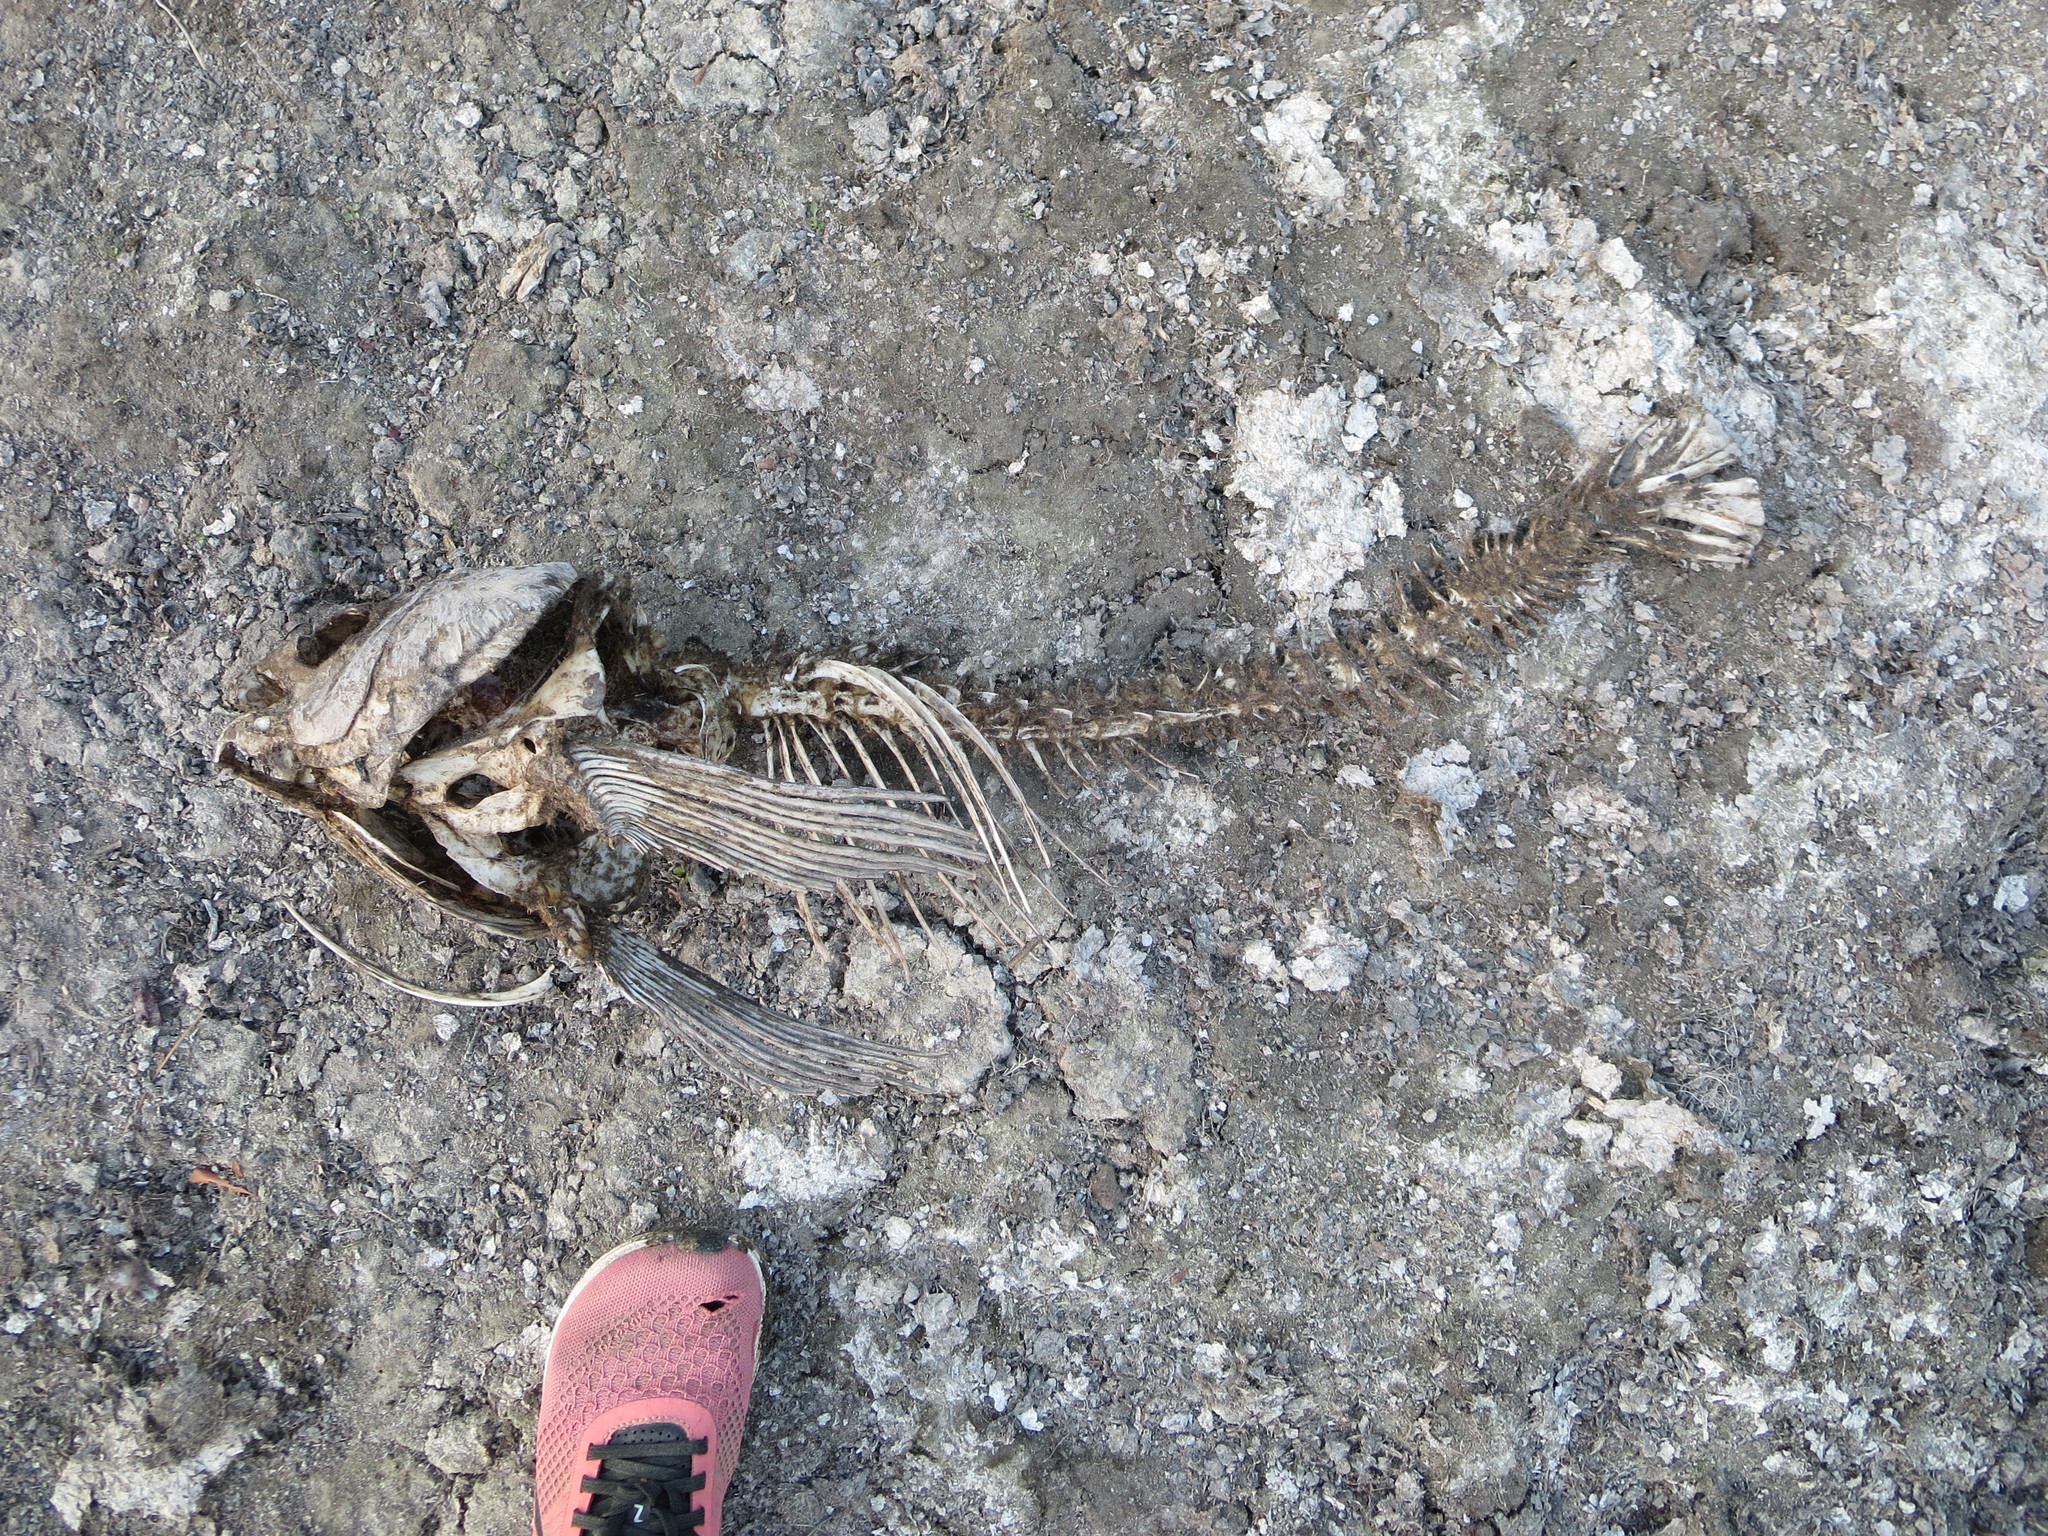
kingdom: Animalia
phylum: Chordata
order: Cypriniformes
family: Cyprinidae
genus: Ctenopharyngodon
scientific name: Ctenopharyngodon idella
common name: Grass carp
